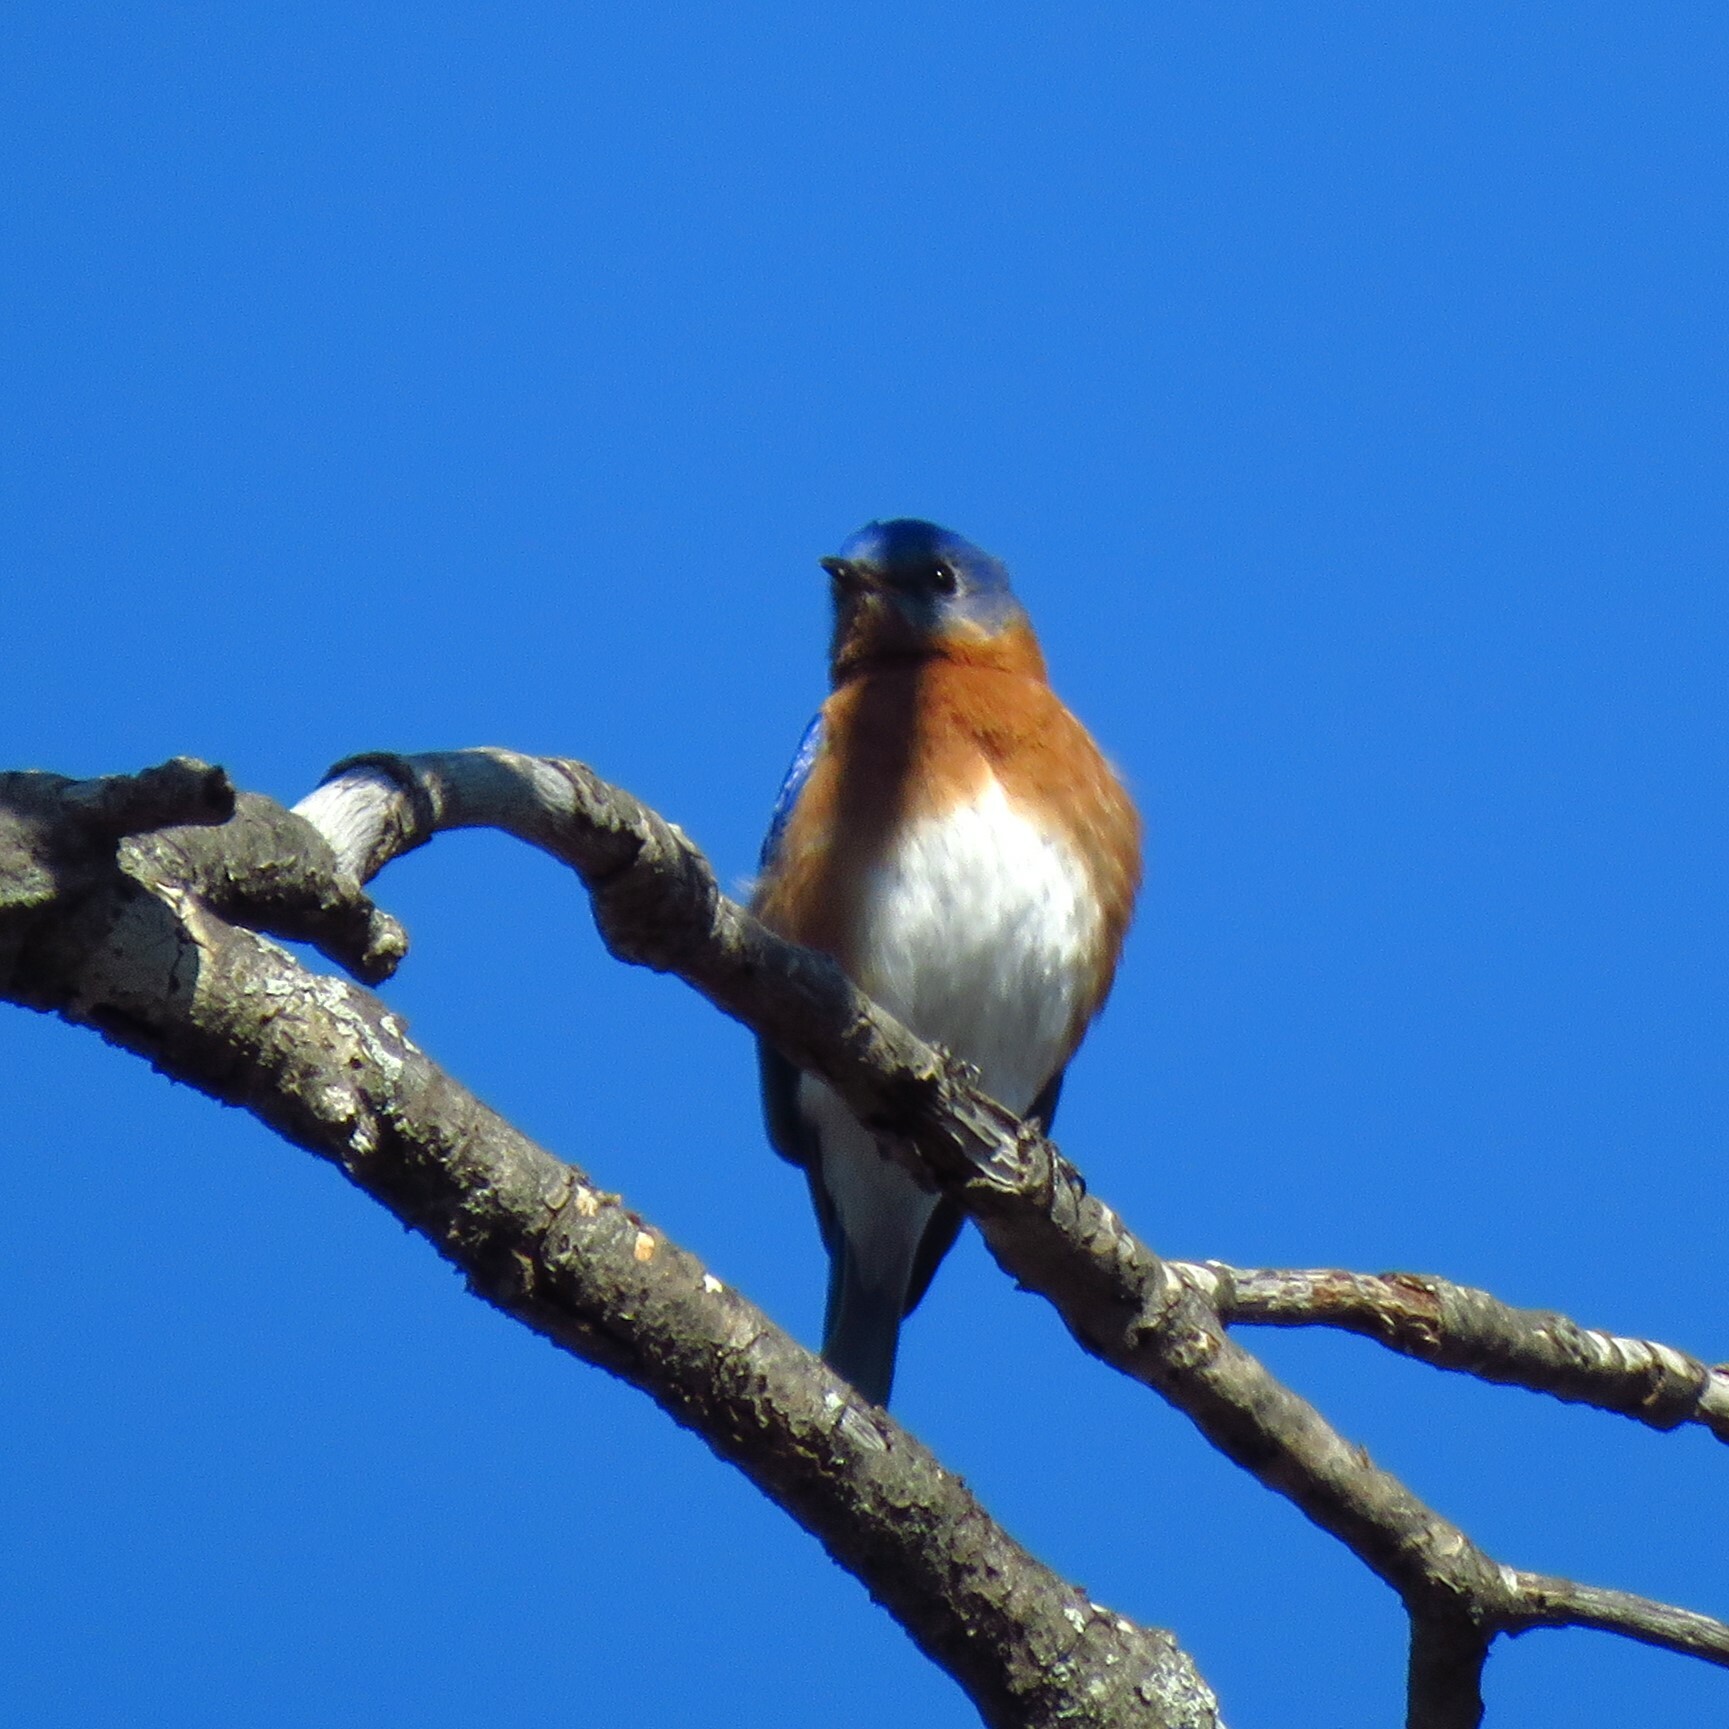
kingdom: Animalia
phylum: Chordata
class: Aves
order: Passeriformes
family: Turdidae
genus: Sialia
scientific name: Sialia sialis
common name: Eastern bluebird
